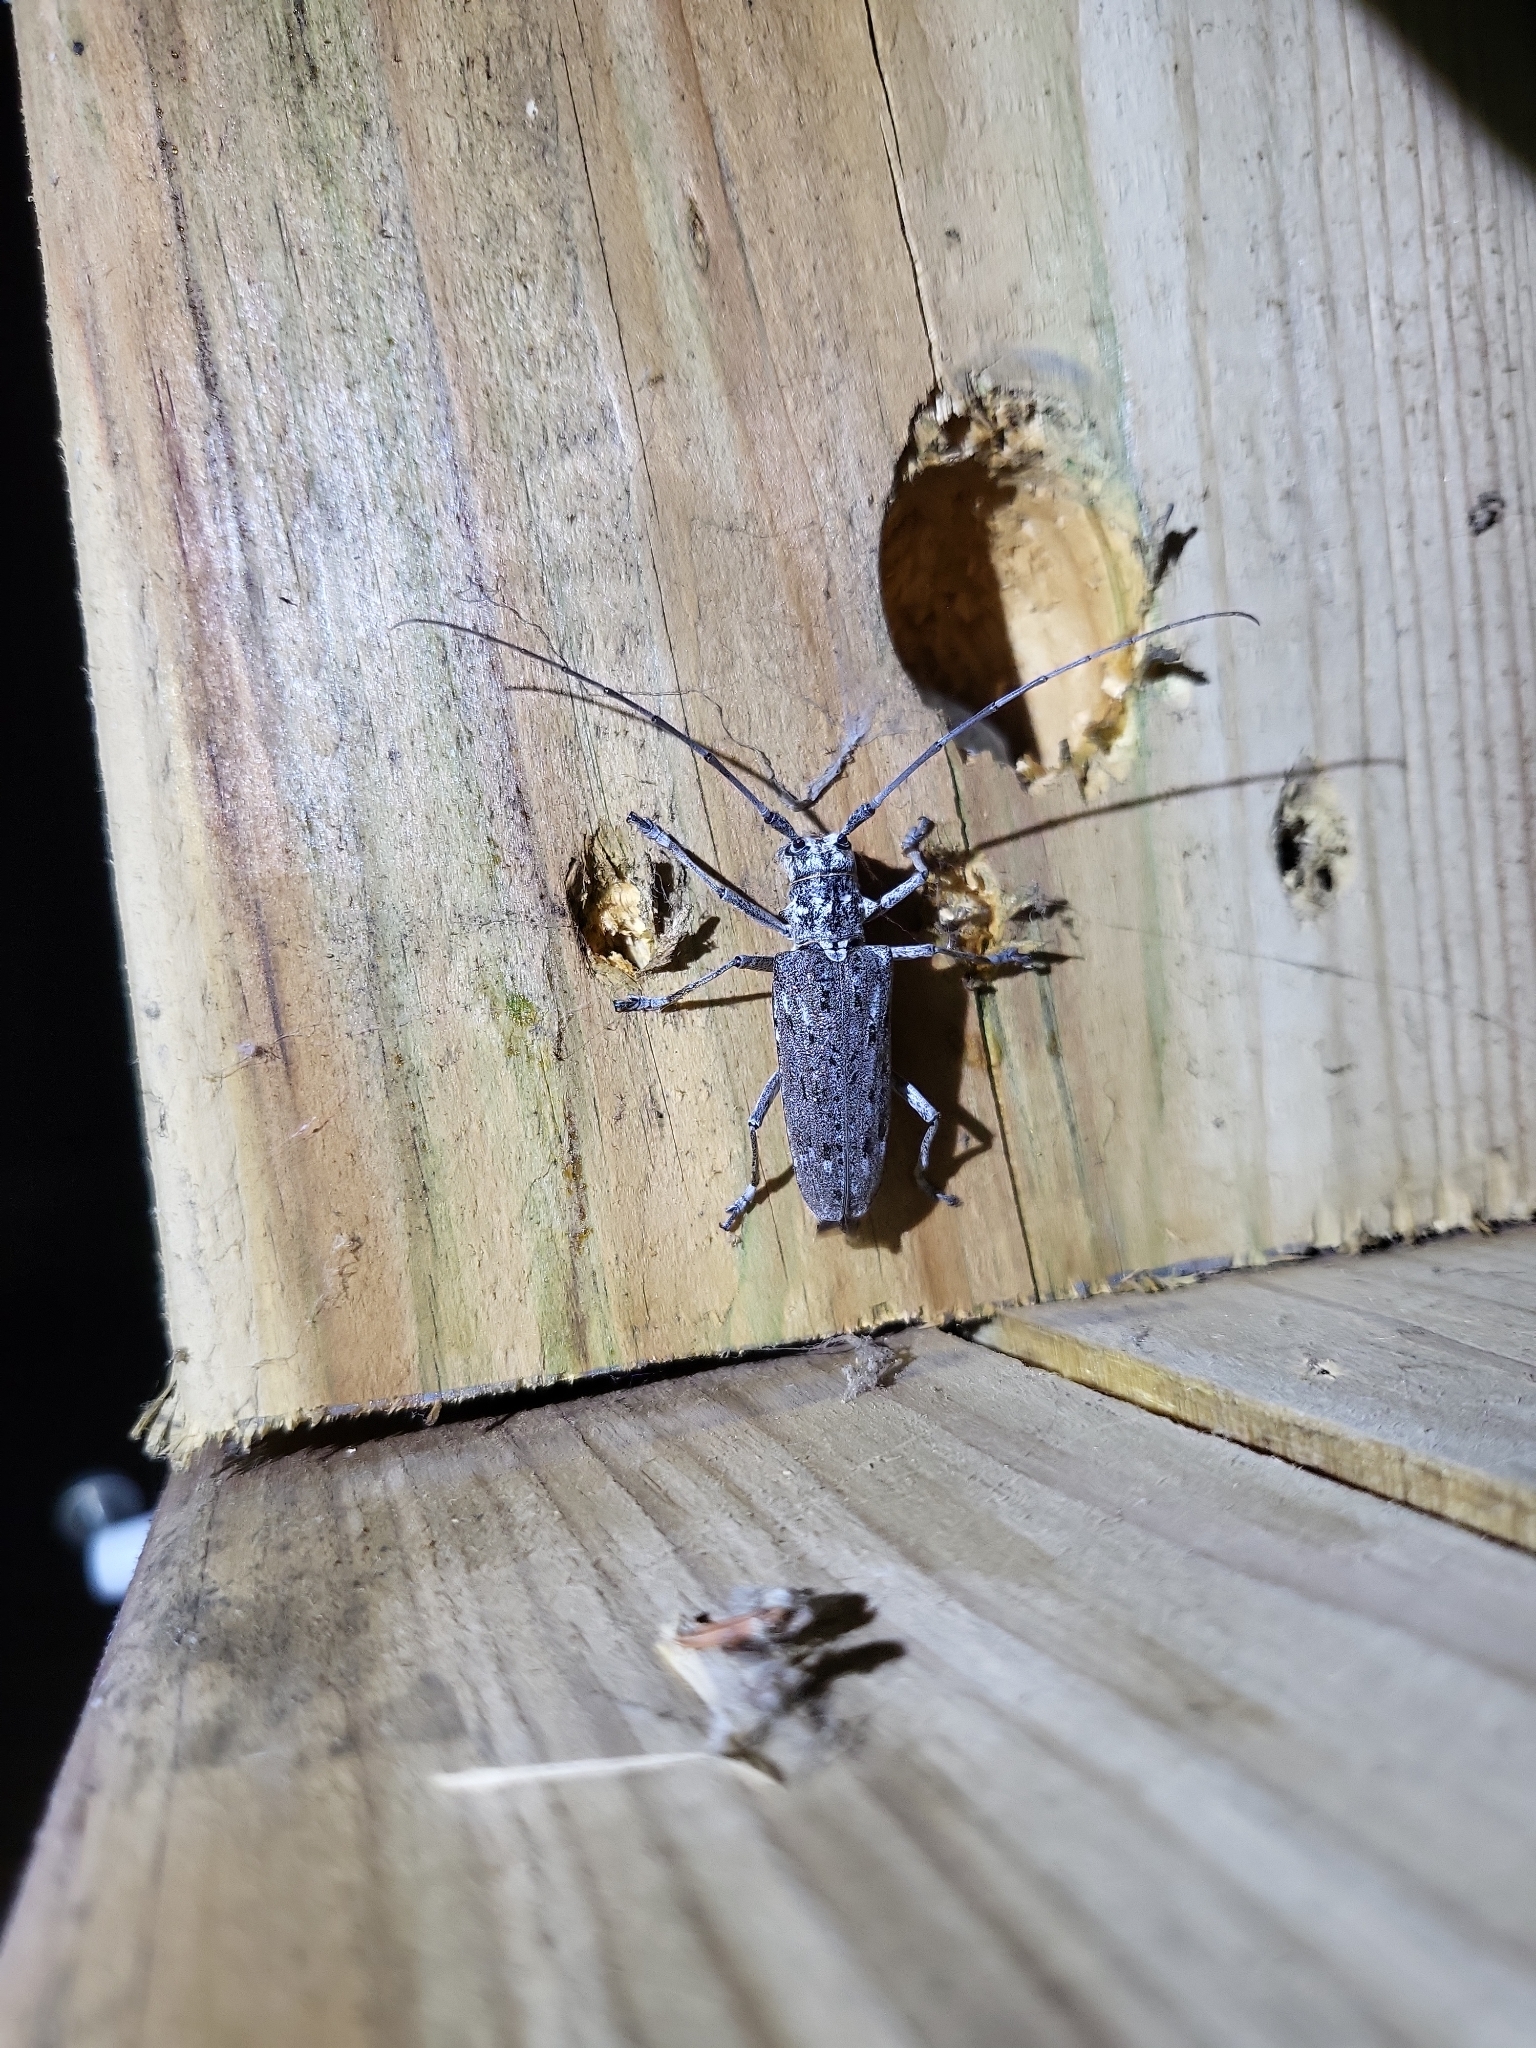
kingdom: Animalia
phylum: Arthropoda
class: Insecta
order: Coleoptera
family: Cerambycidae
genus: Monochamus
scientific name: Monochamus notatus
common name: Northeastern pine sawyer beetle
